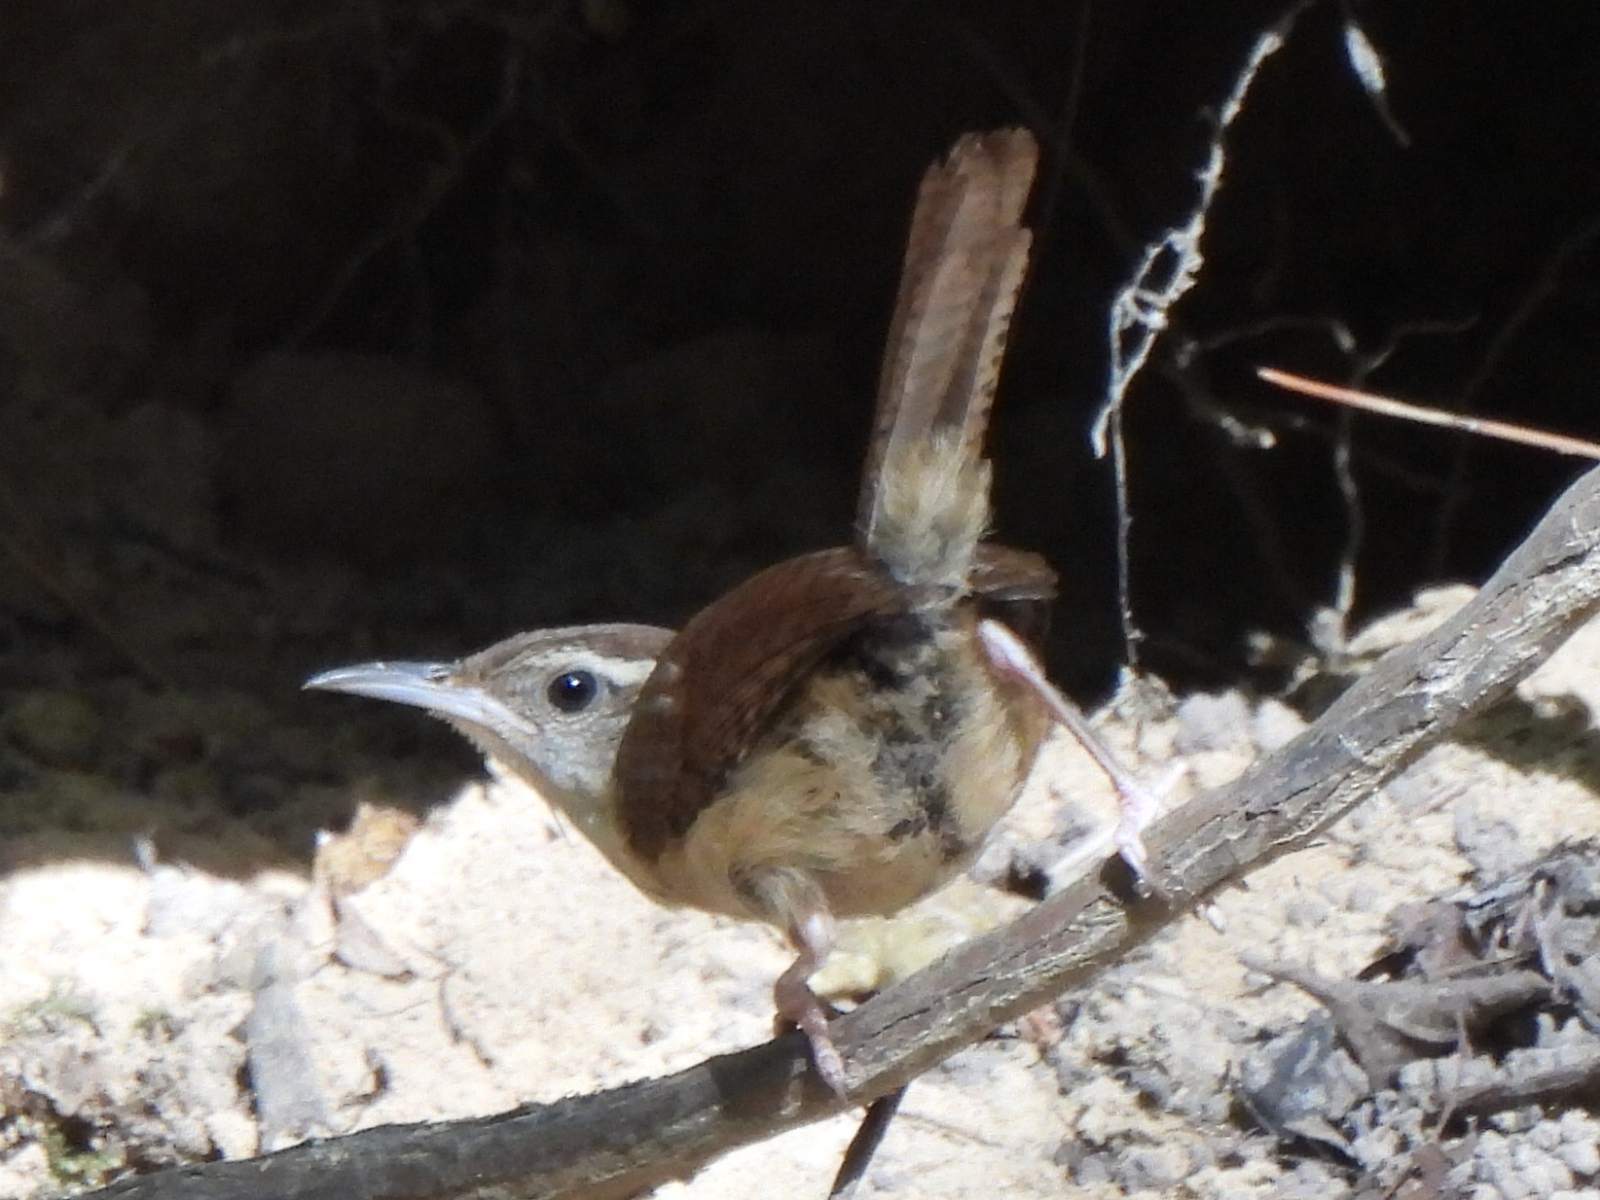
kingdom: Animalia
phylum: Chordata
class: Aves
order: Passeriformes
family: Troglodytidae
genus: Thryothorus
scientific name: Thryothorus ludovicianus
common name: Carolina wren
